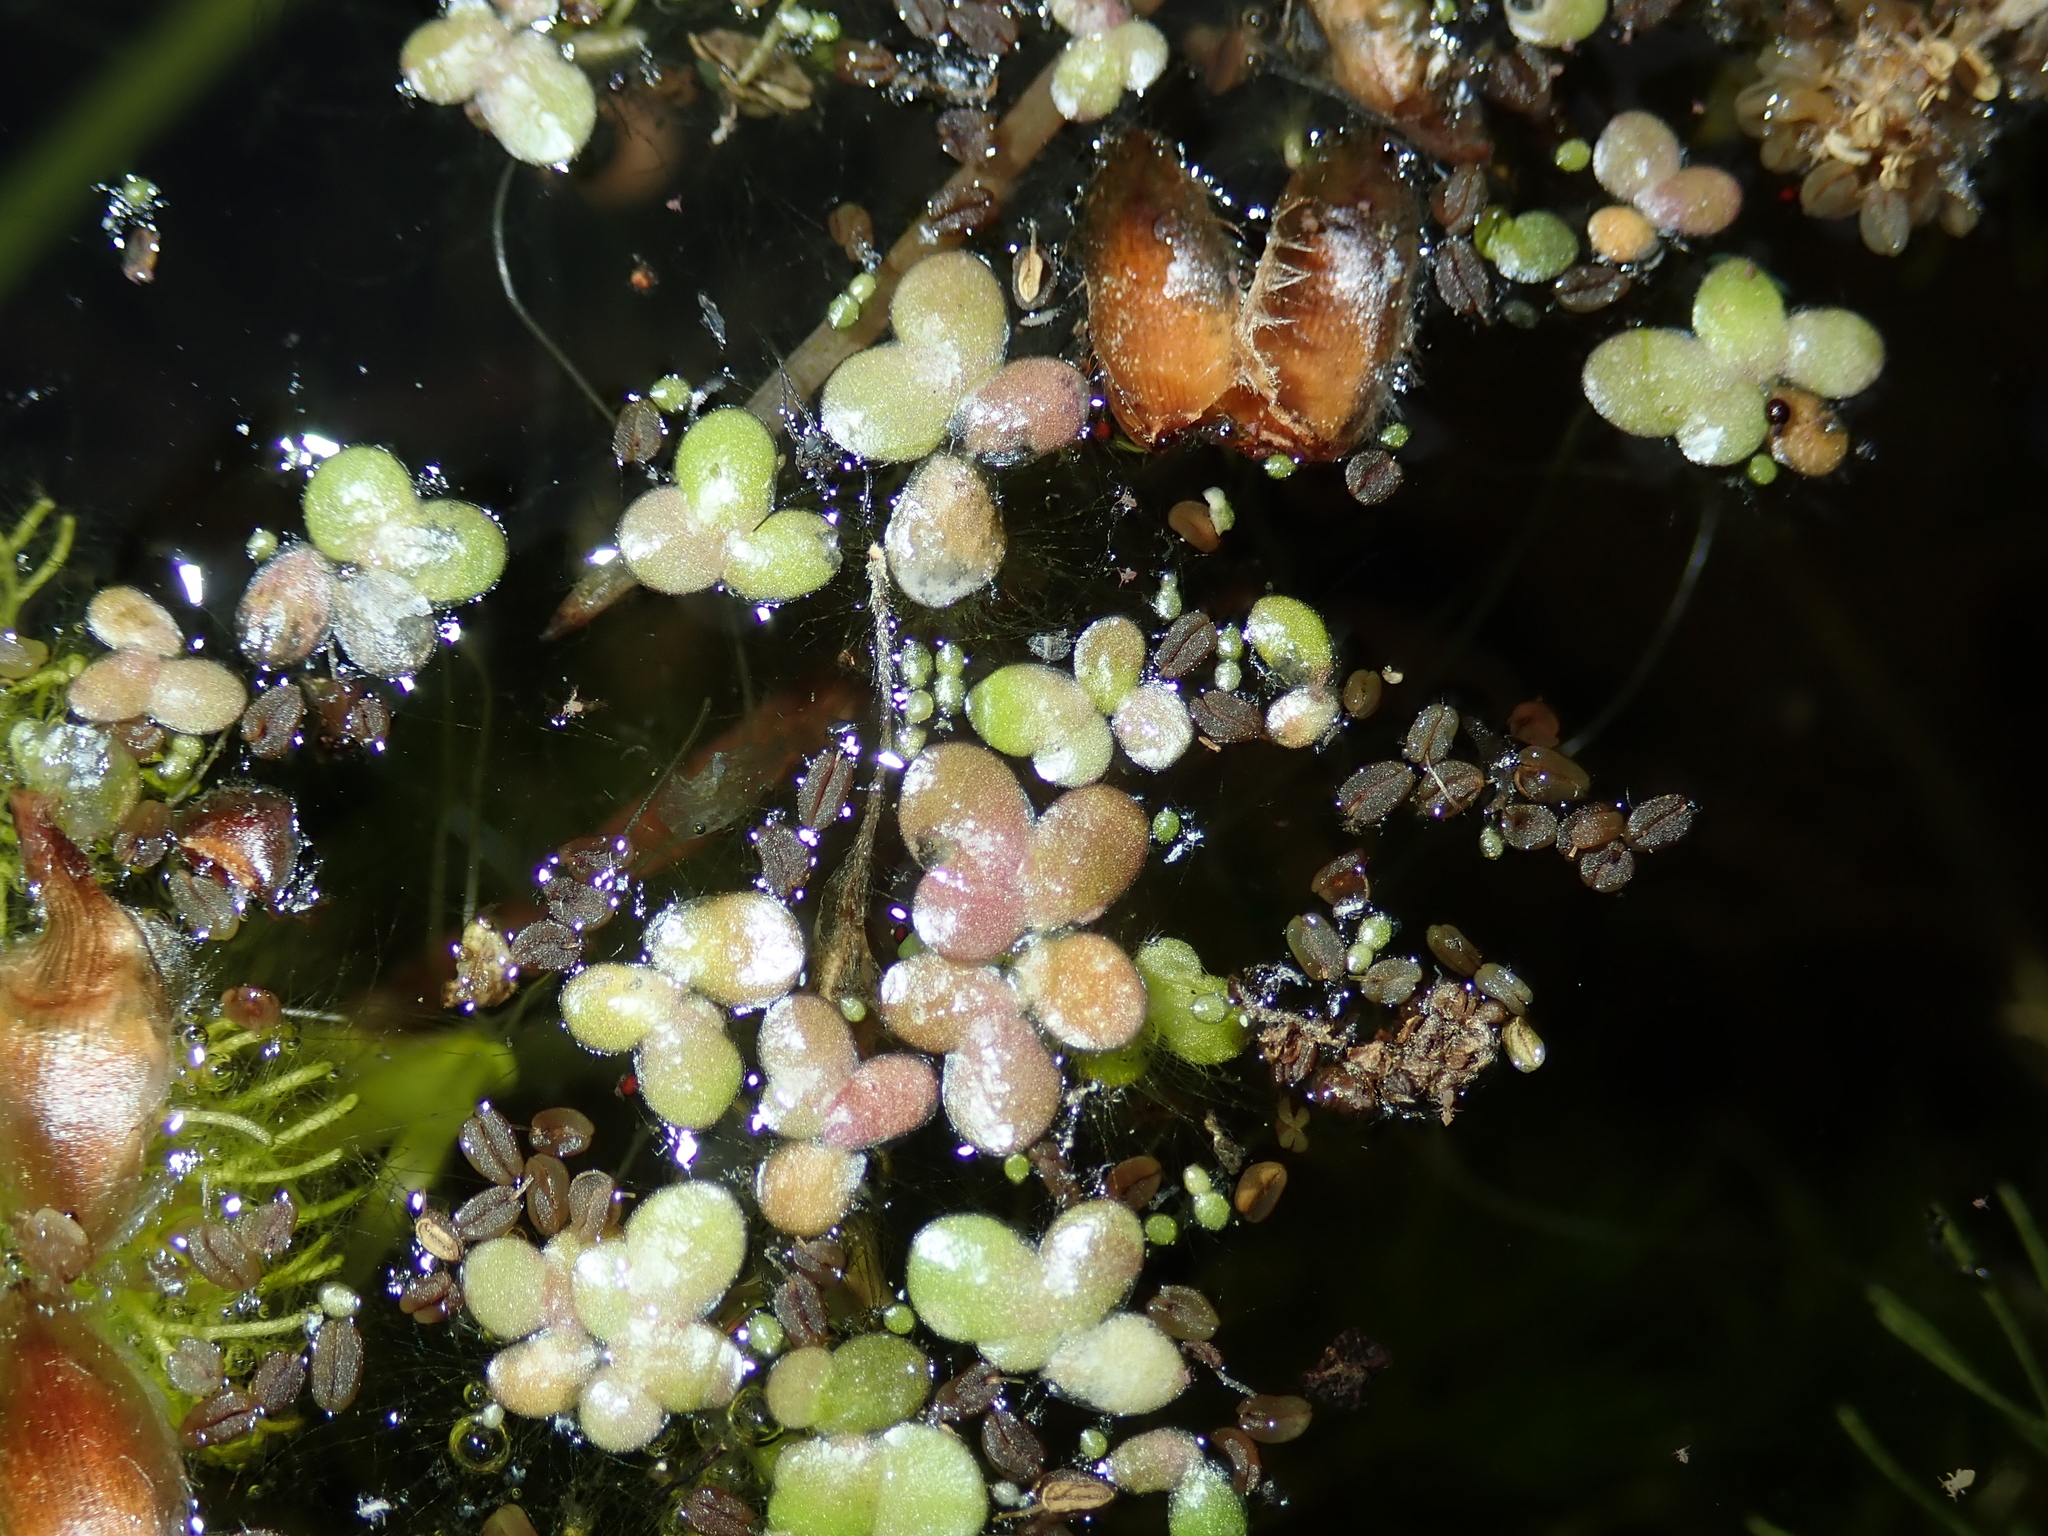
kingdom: Plantae
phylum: Tracheophyta
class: Liliopsida
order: Alismatales
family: Araceae
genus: Lemna
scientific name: Lemna minor
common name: Common duckweed
